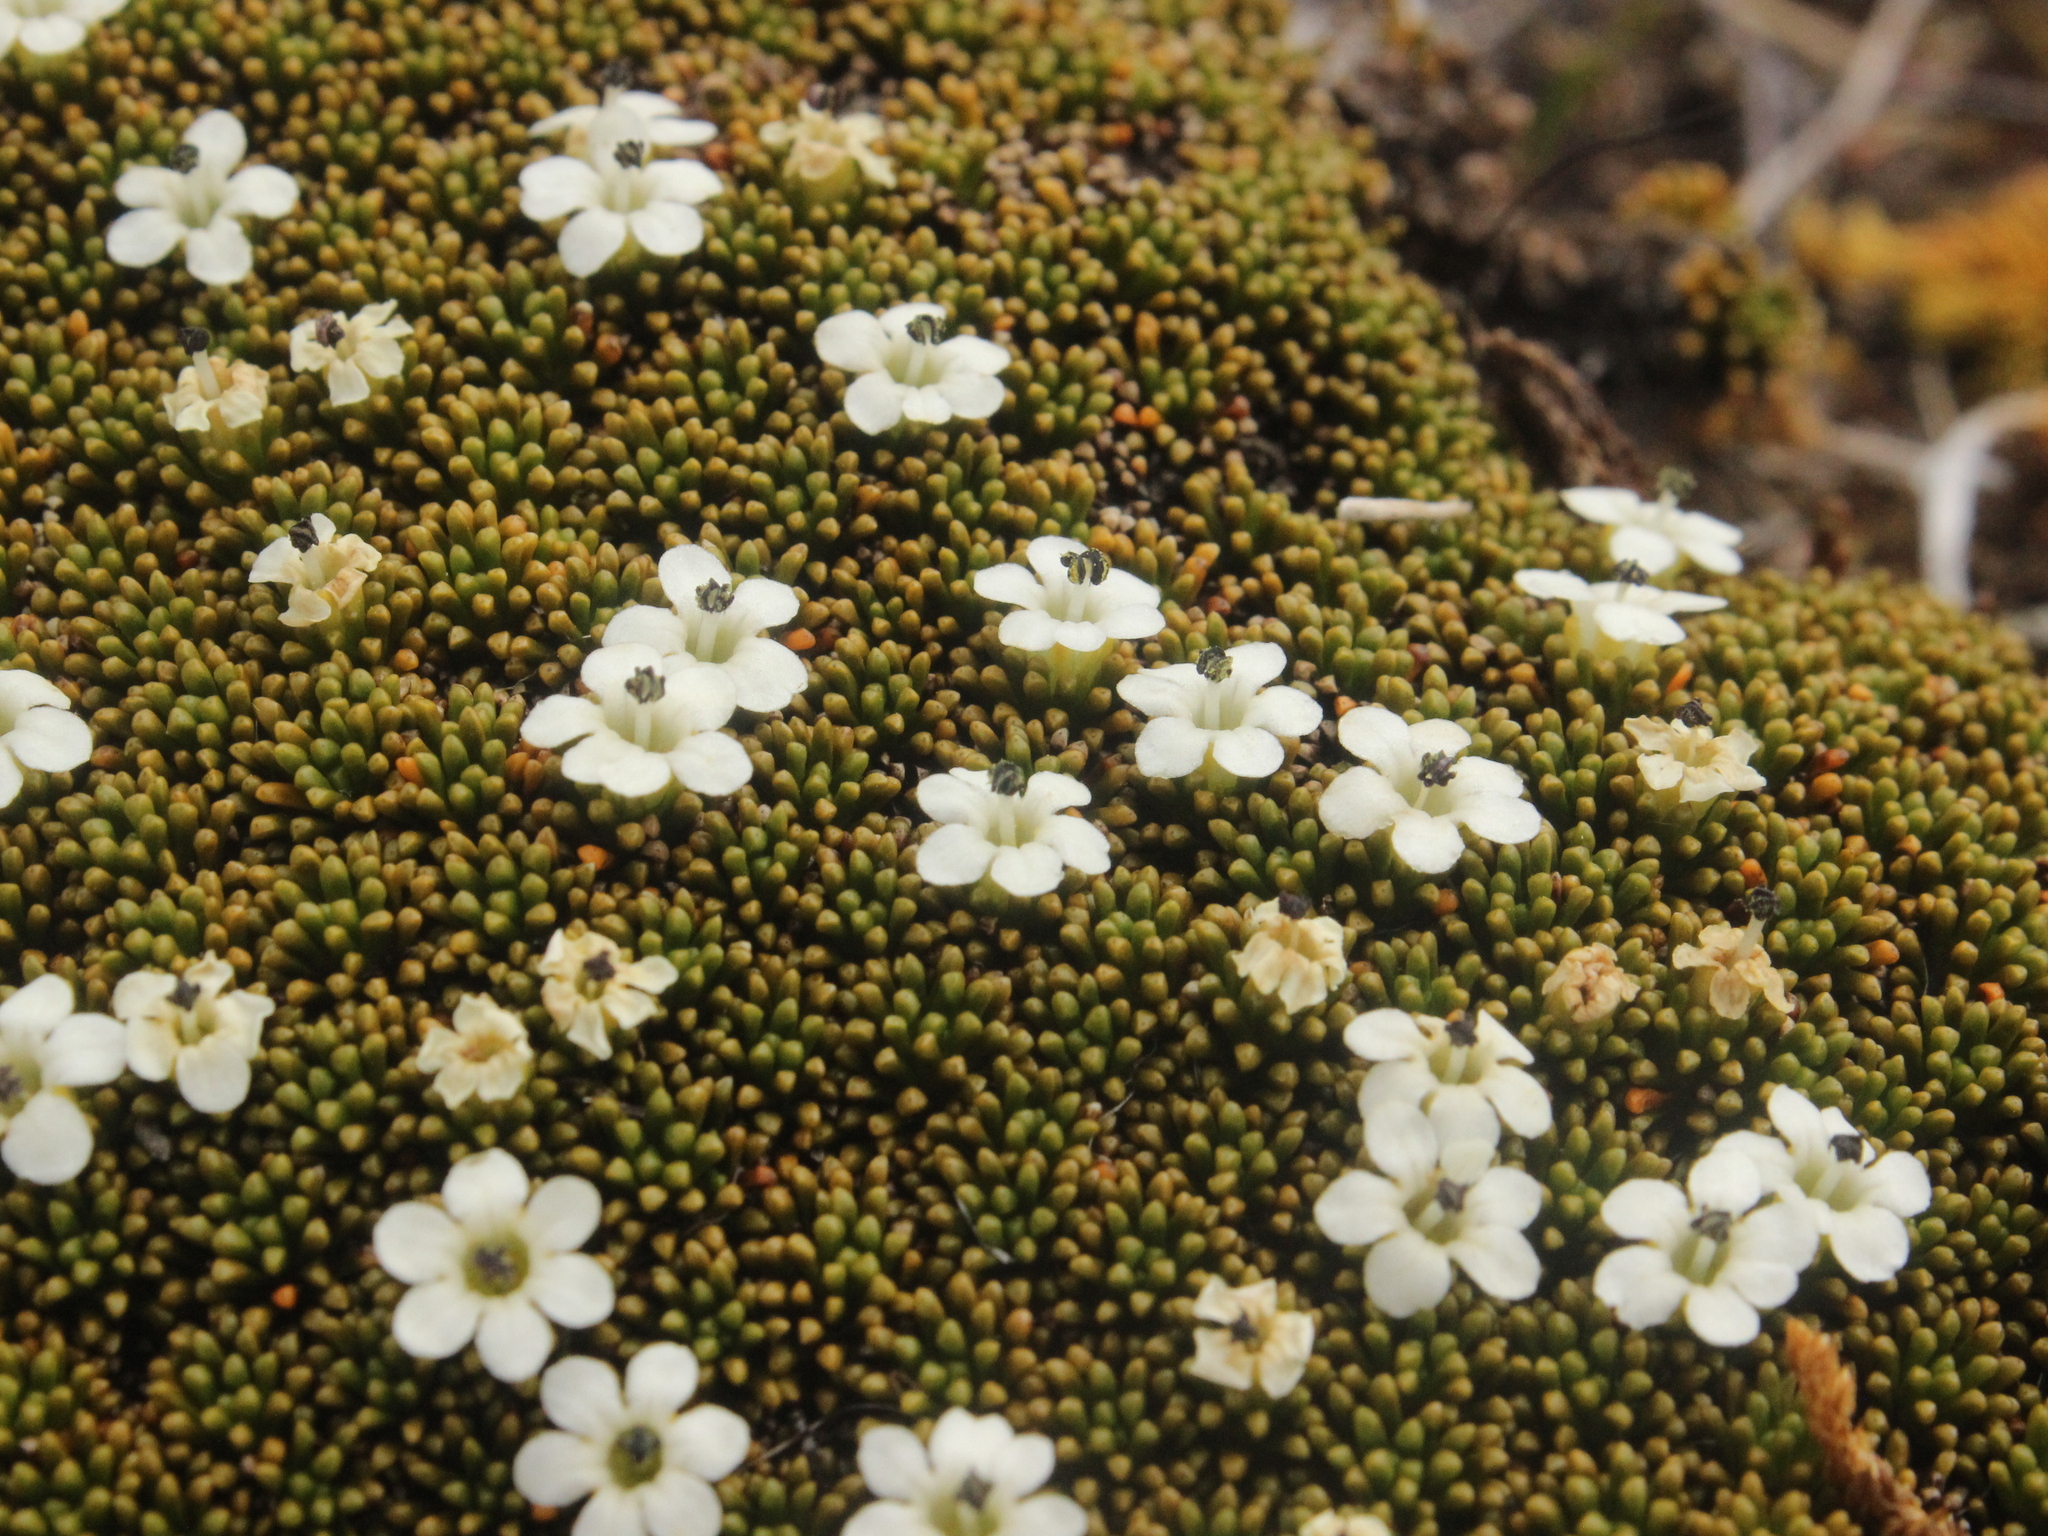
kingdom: Plantae
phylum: Tracheophyta
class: Magnoliopsida
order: Asterales
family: Stylidiaceae
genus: Phyllachne
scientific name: Phyllachne colensoi
